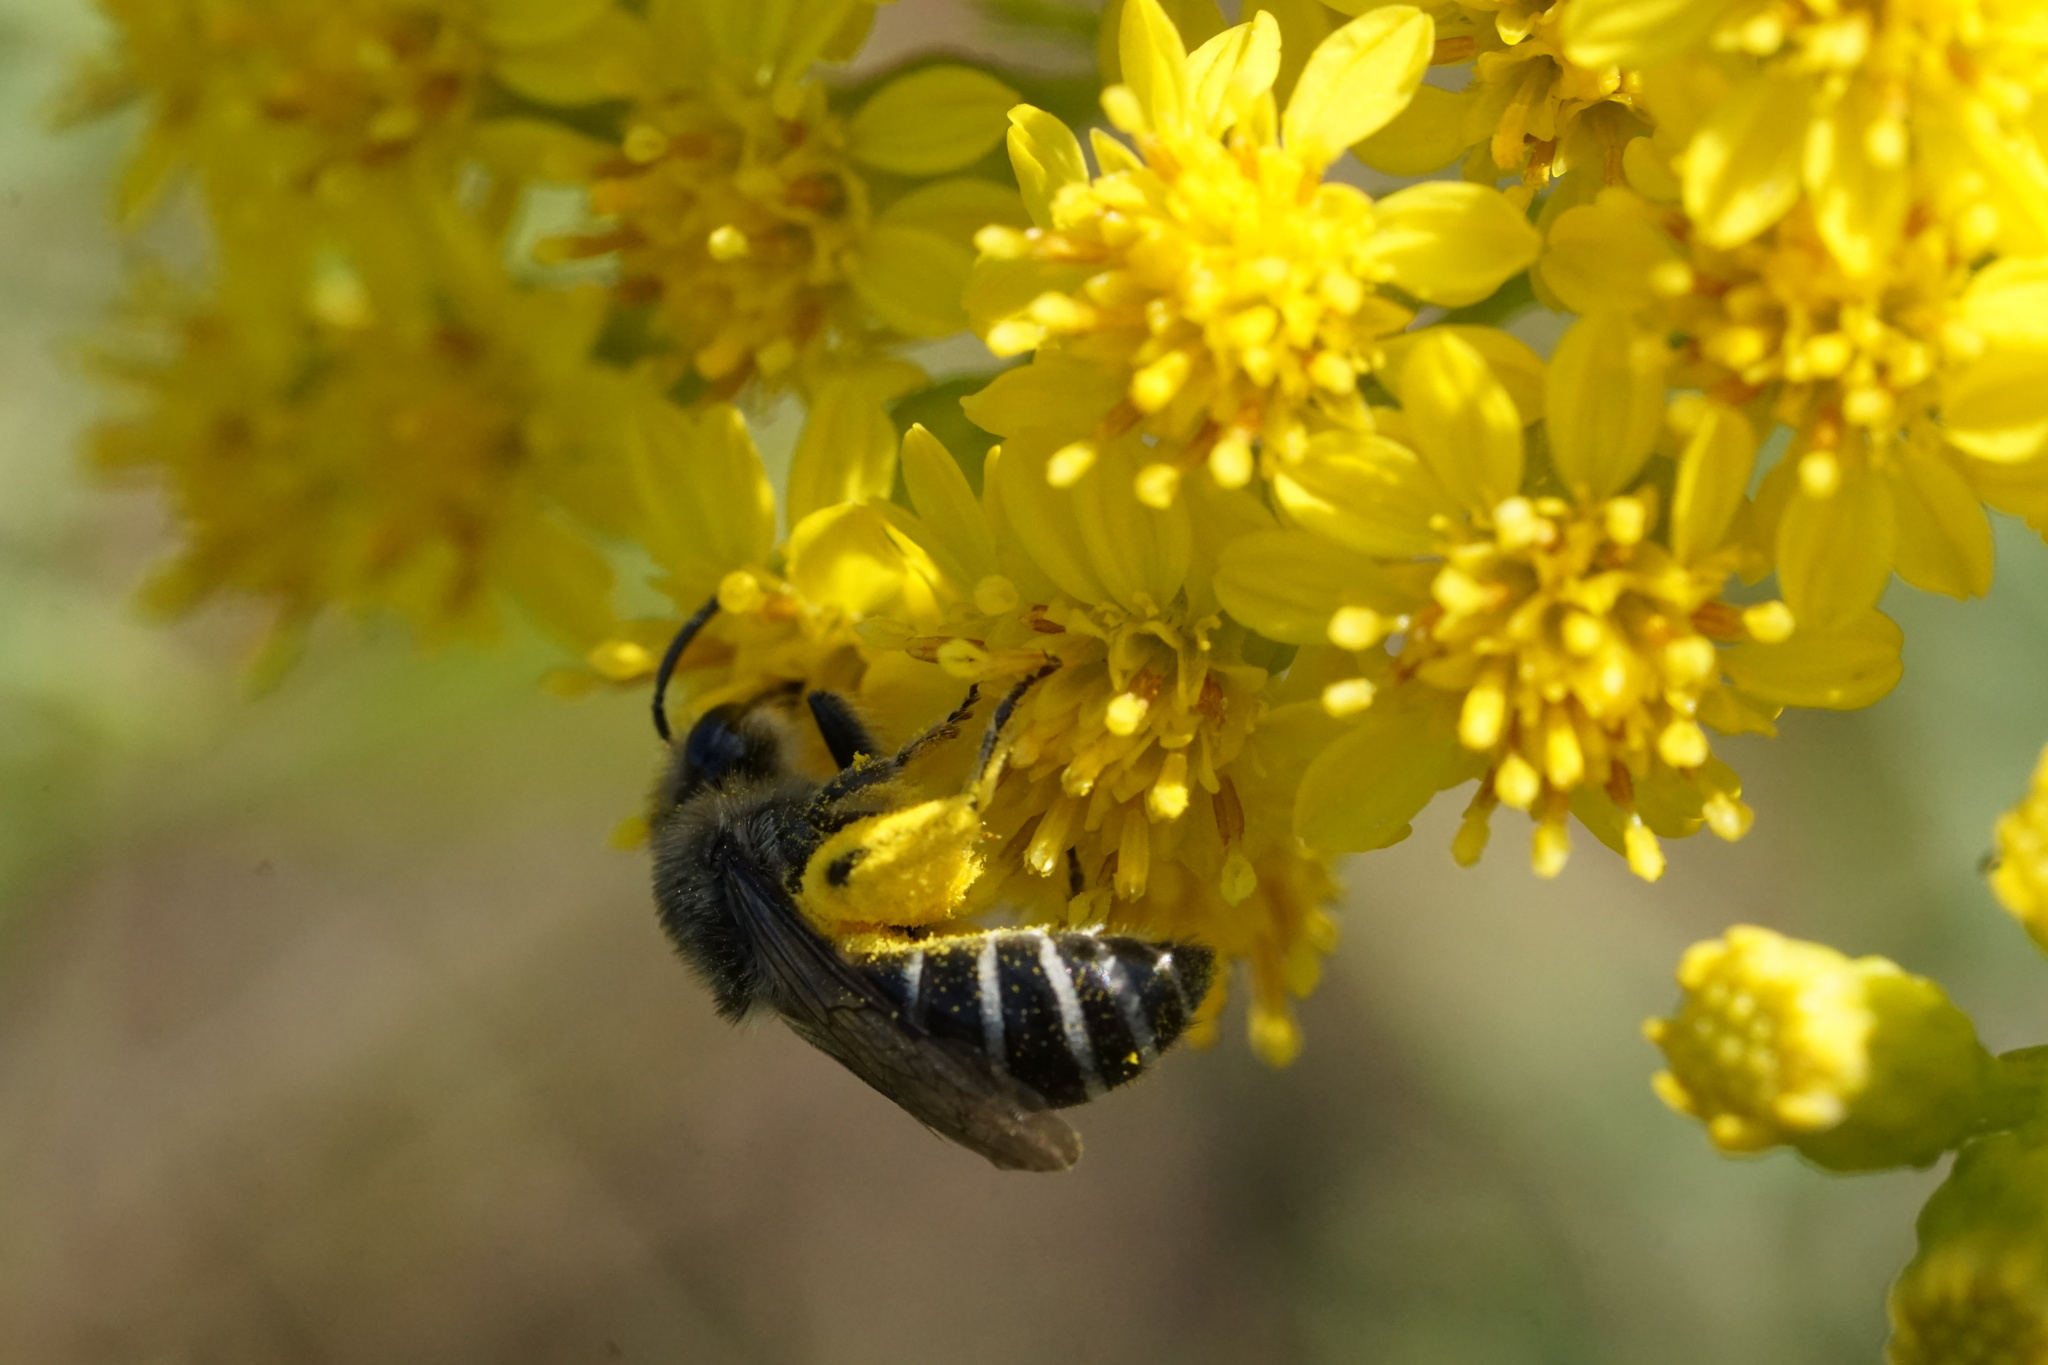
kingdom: Animalia
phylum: Arthropoda
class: Insecta
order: Hymenoptera
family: Colletidae
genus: Colletes
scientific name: Colletes simulans
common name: Spine-shouldered cellophane bee
